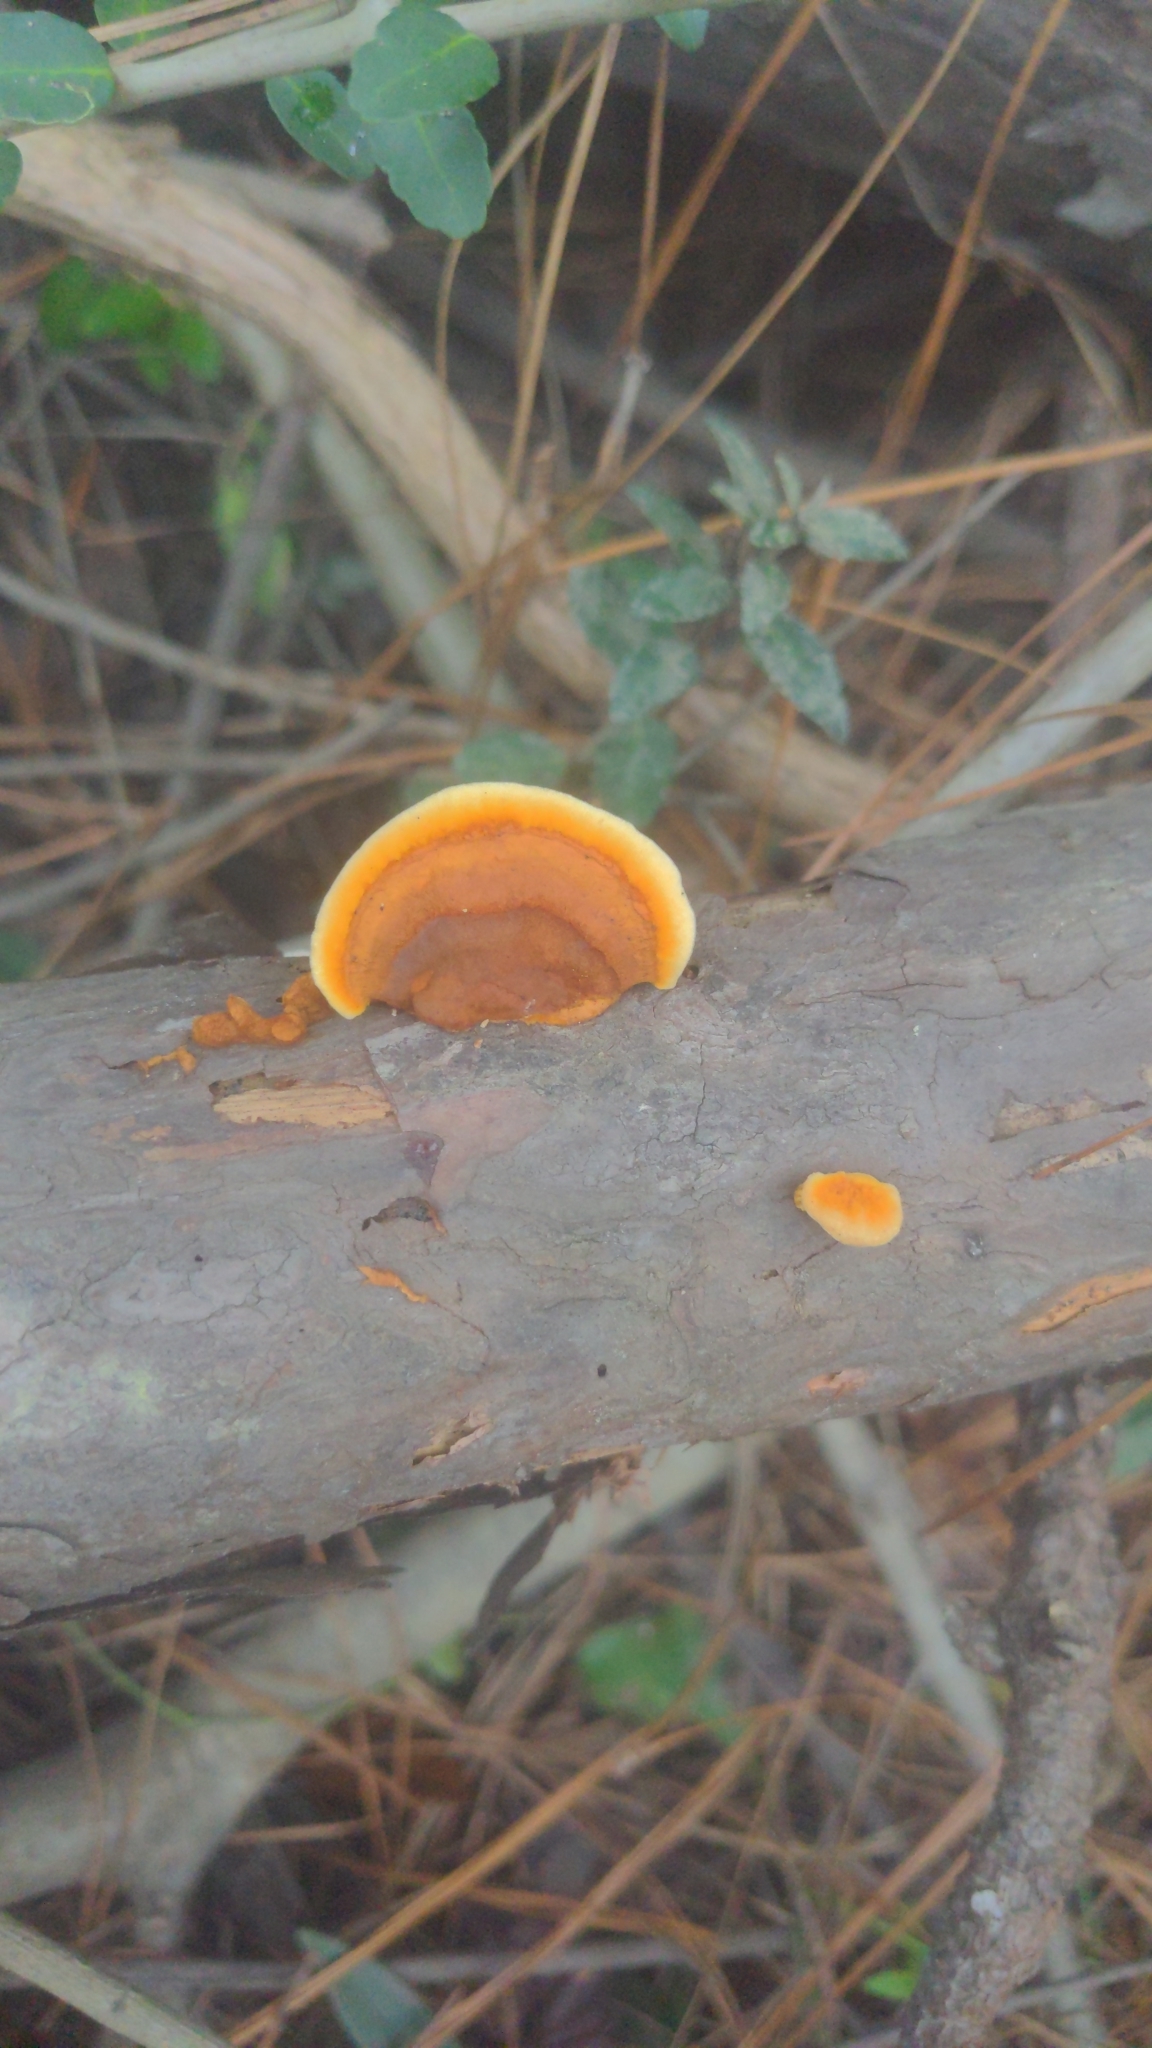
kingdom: Fungi
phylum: Basidiomycota
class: Agaricomycetes
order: Gloeophyllales
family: Gloeophyllaceae
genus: Gloeophyllum
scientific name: Gloeophyllum sepiarium
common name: Conifer mazegill
